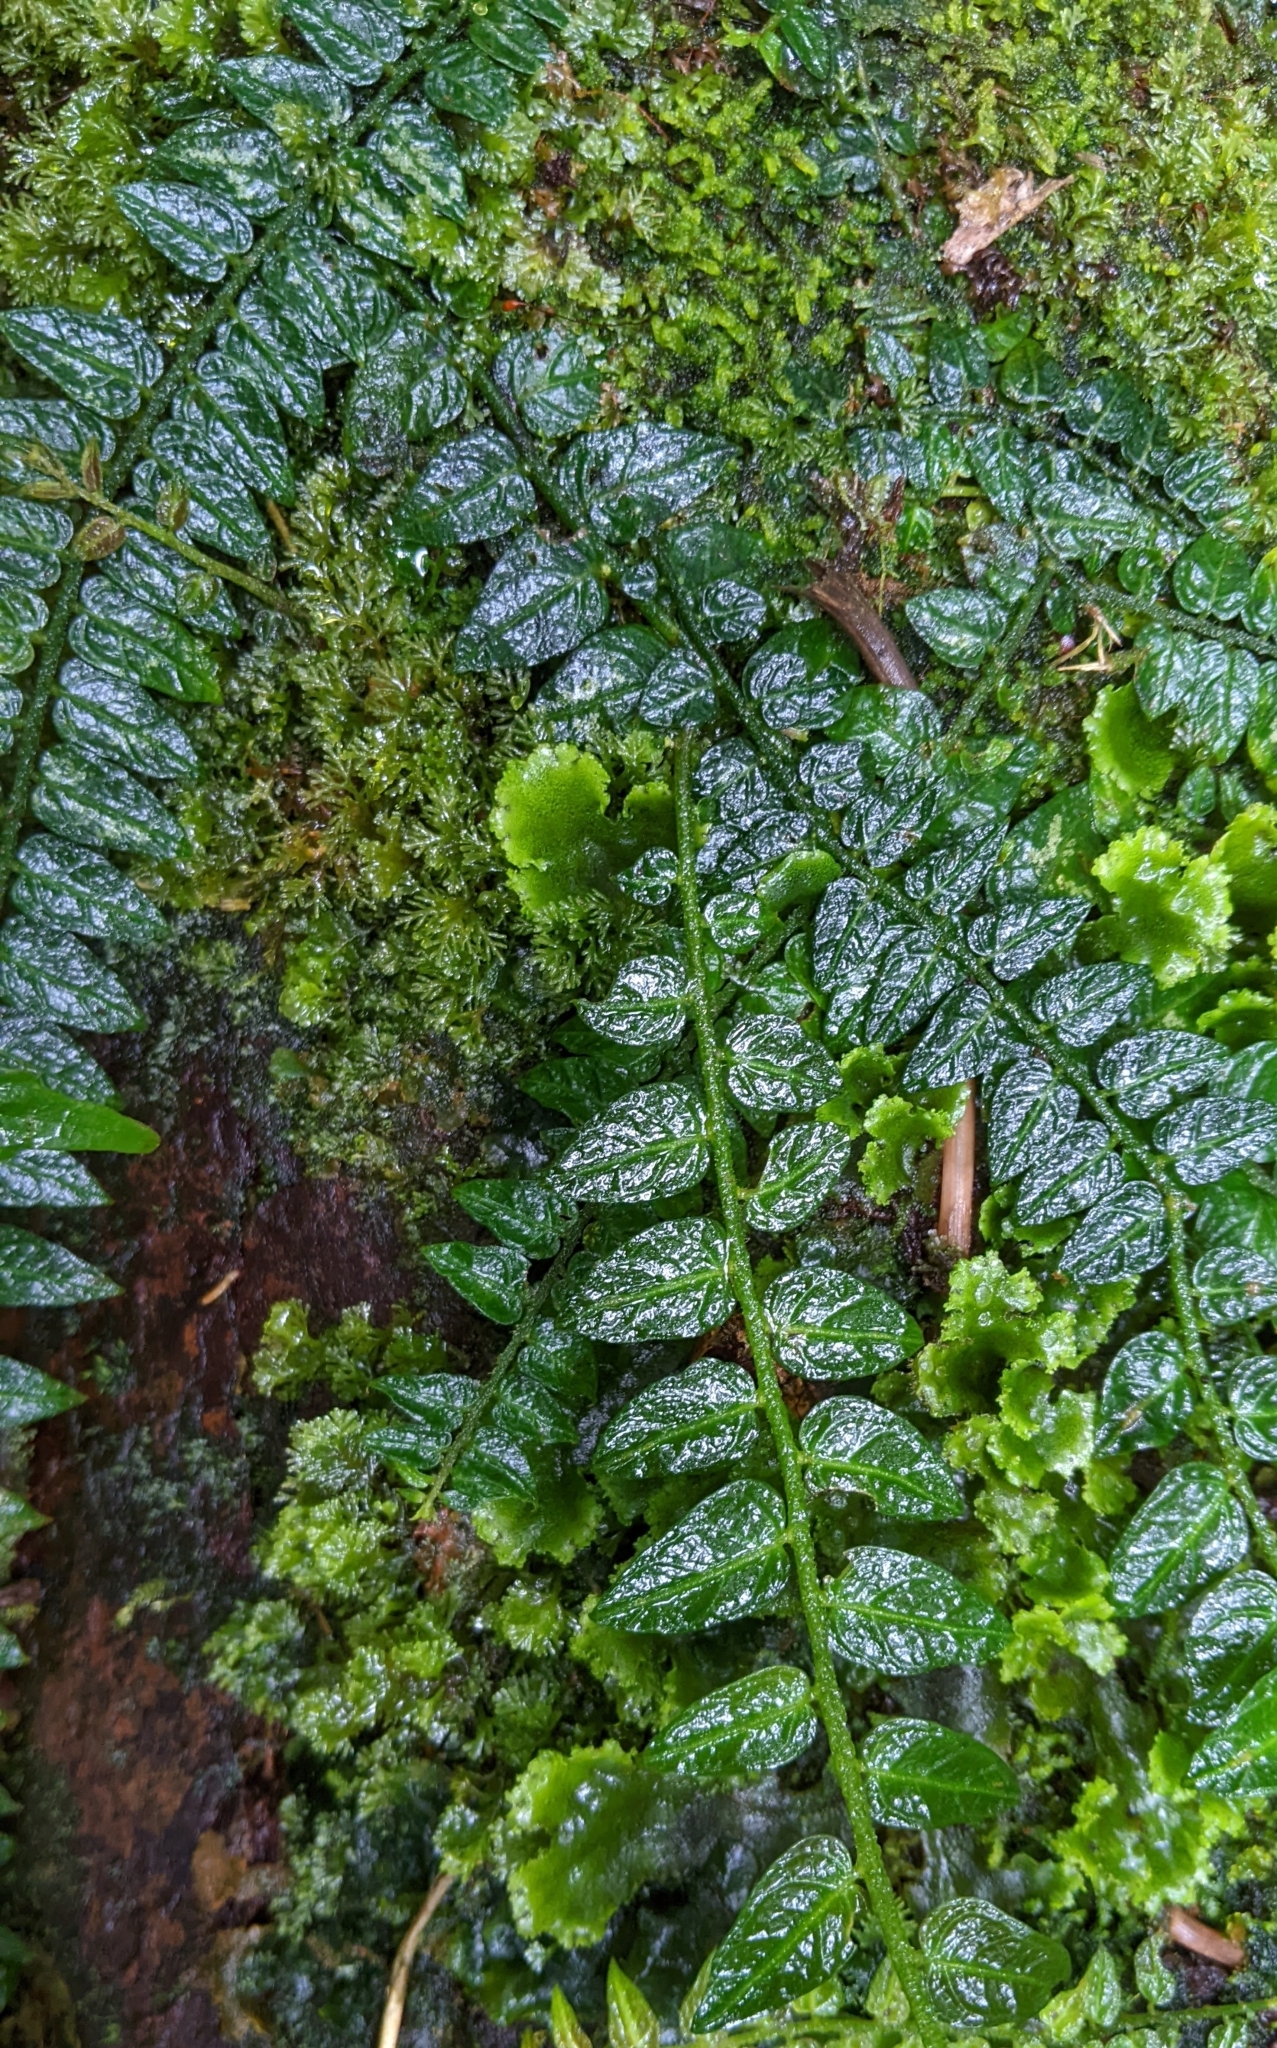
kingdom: Plantae
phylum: Tracheophyta
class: Magnoliopsida
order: Solanales
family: Solanaceae
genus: Solanum
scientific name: Solanum evolvulifolium
